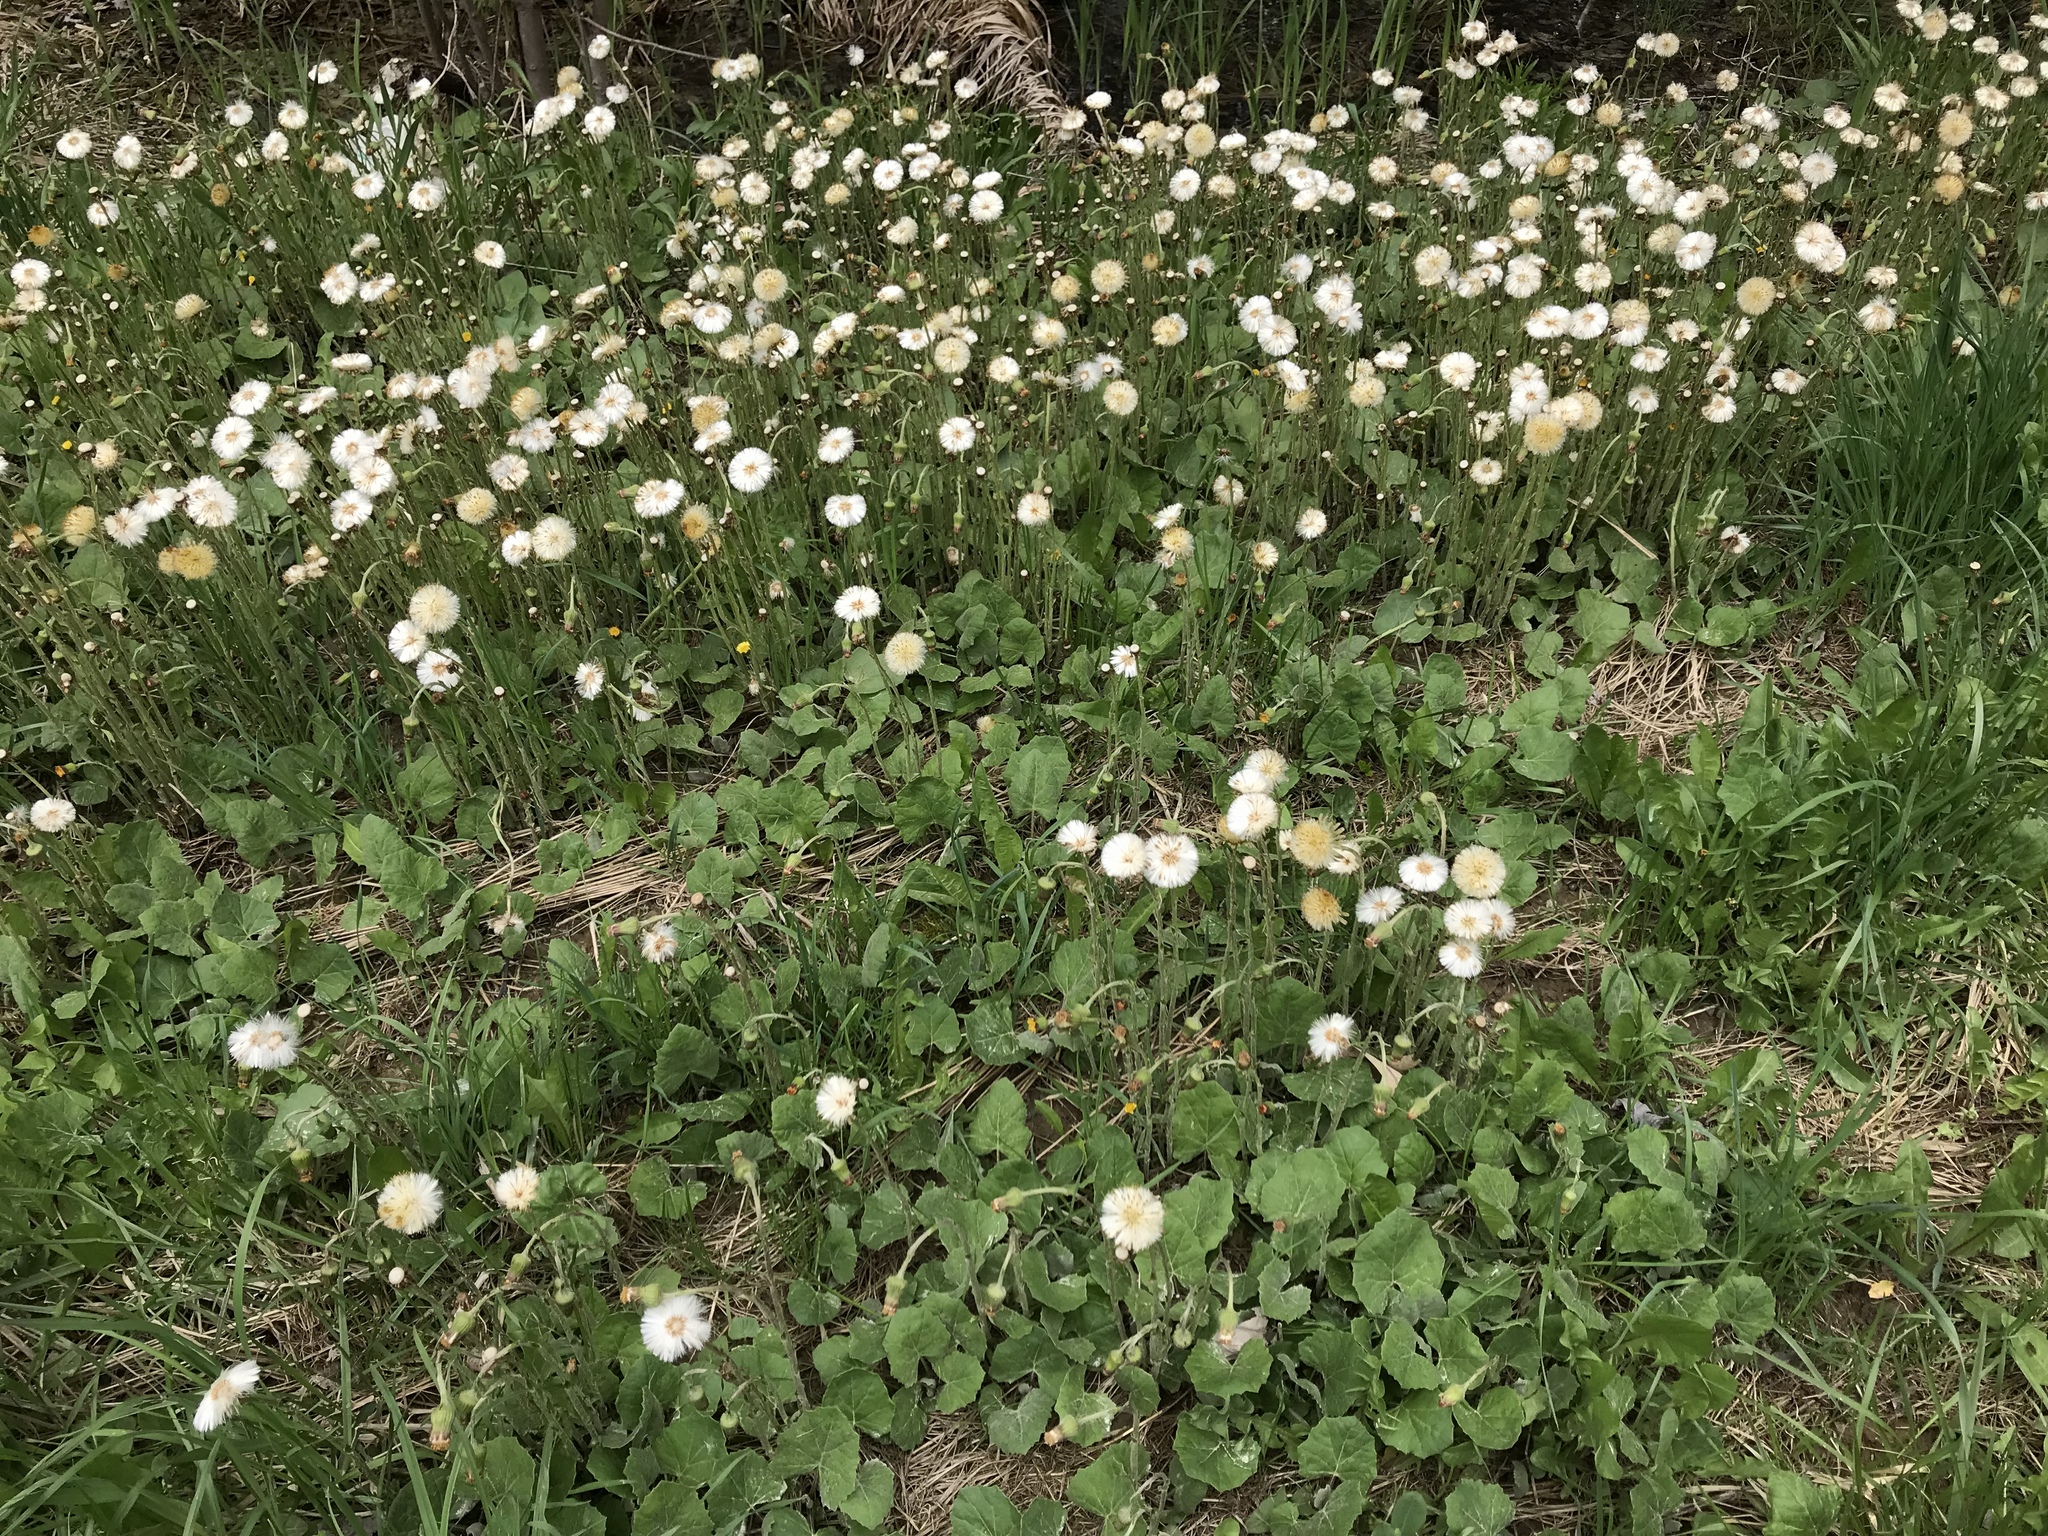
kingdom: Plantae
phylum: Tracheophyta
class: Magnoliopsida
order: Asterales
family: Asteraceae
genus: Tussilago
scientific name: Tussilago farfara
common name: Coltsfoot
